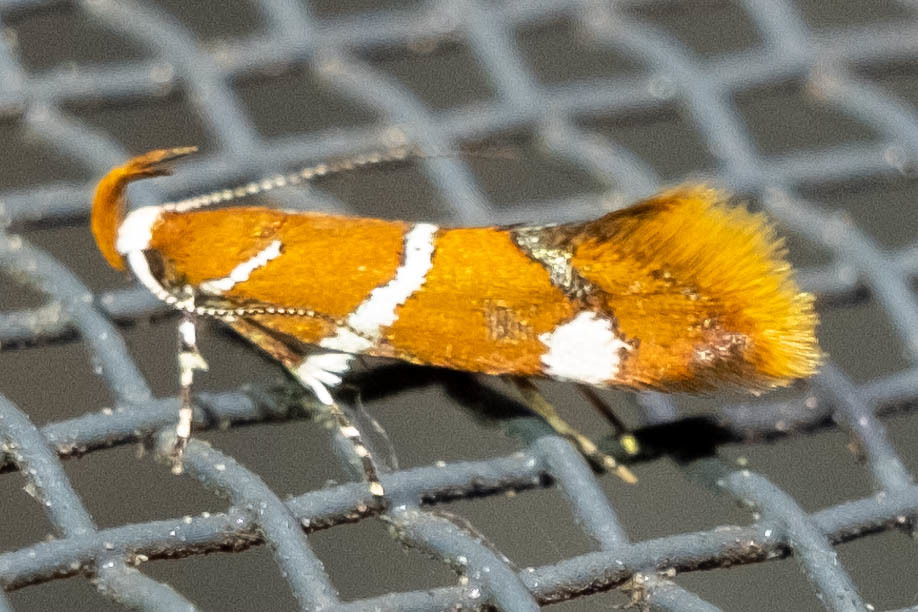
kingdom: Animalia
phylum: Arthropoda
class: Insecta
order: Lepidoptera
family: Oecophoridae
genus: Promalactis
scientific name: Promalactis suzukiella
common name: Moth
